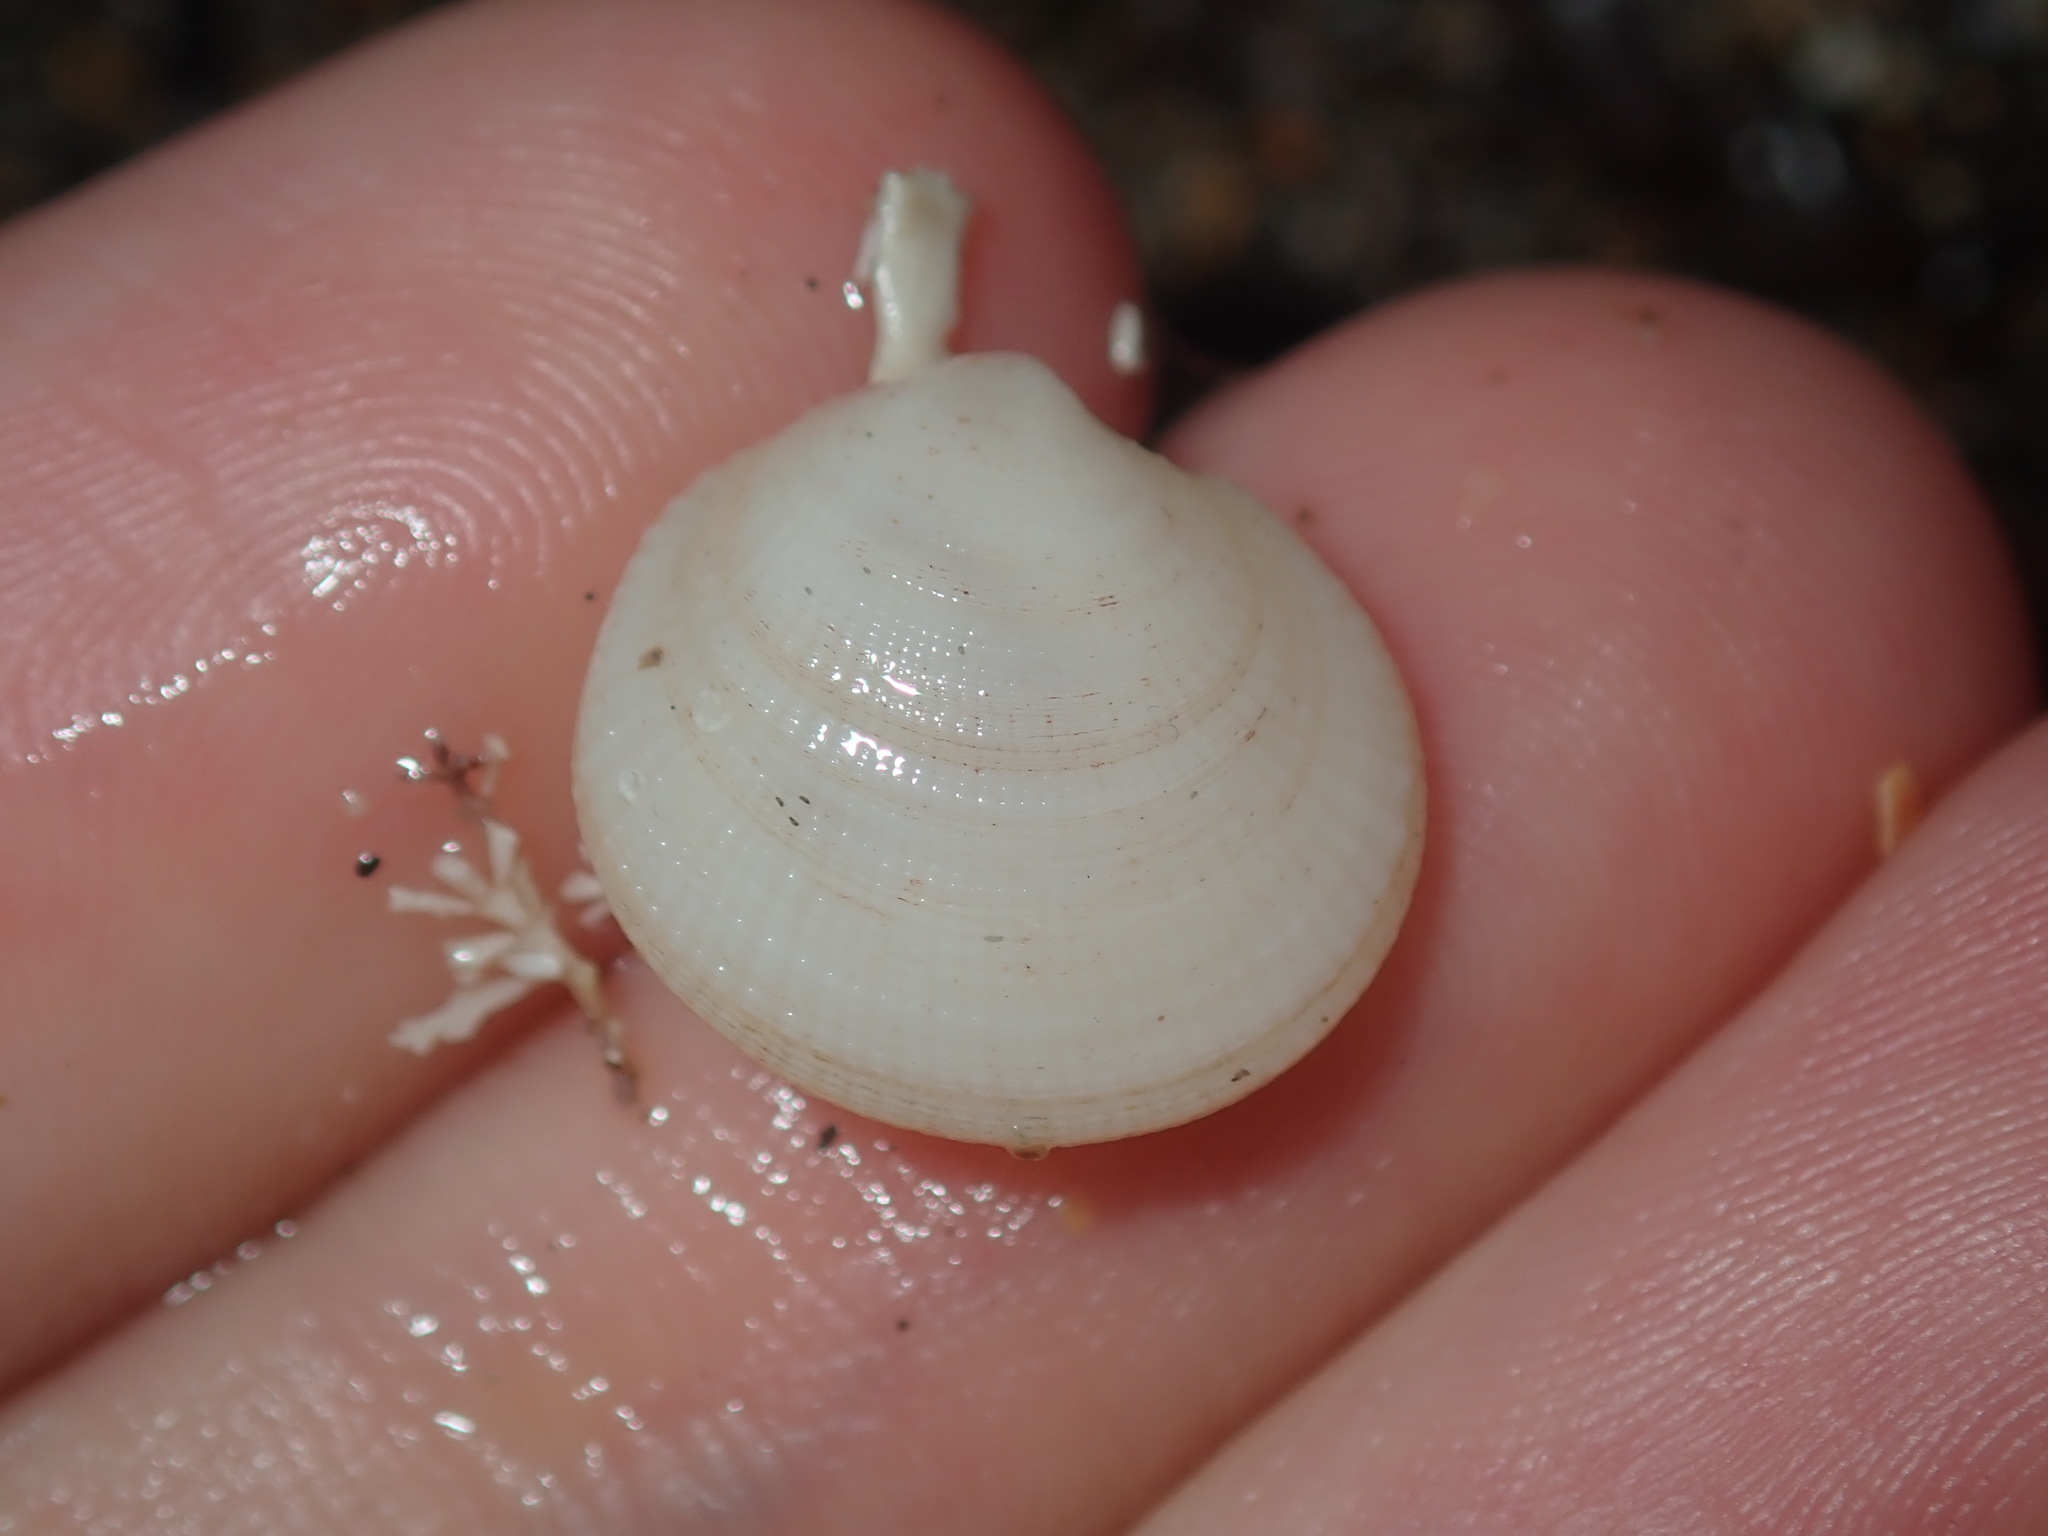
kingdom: Animalia
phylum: Mollusca
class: Bivalvia
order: Lucinida
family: Lucinidae
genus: Ctena
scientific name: Ctena bella
